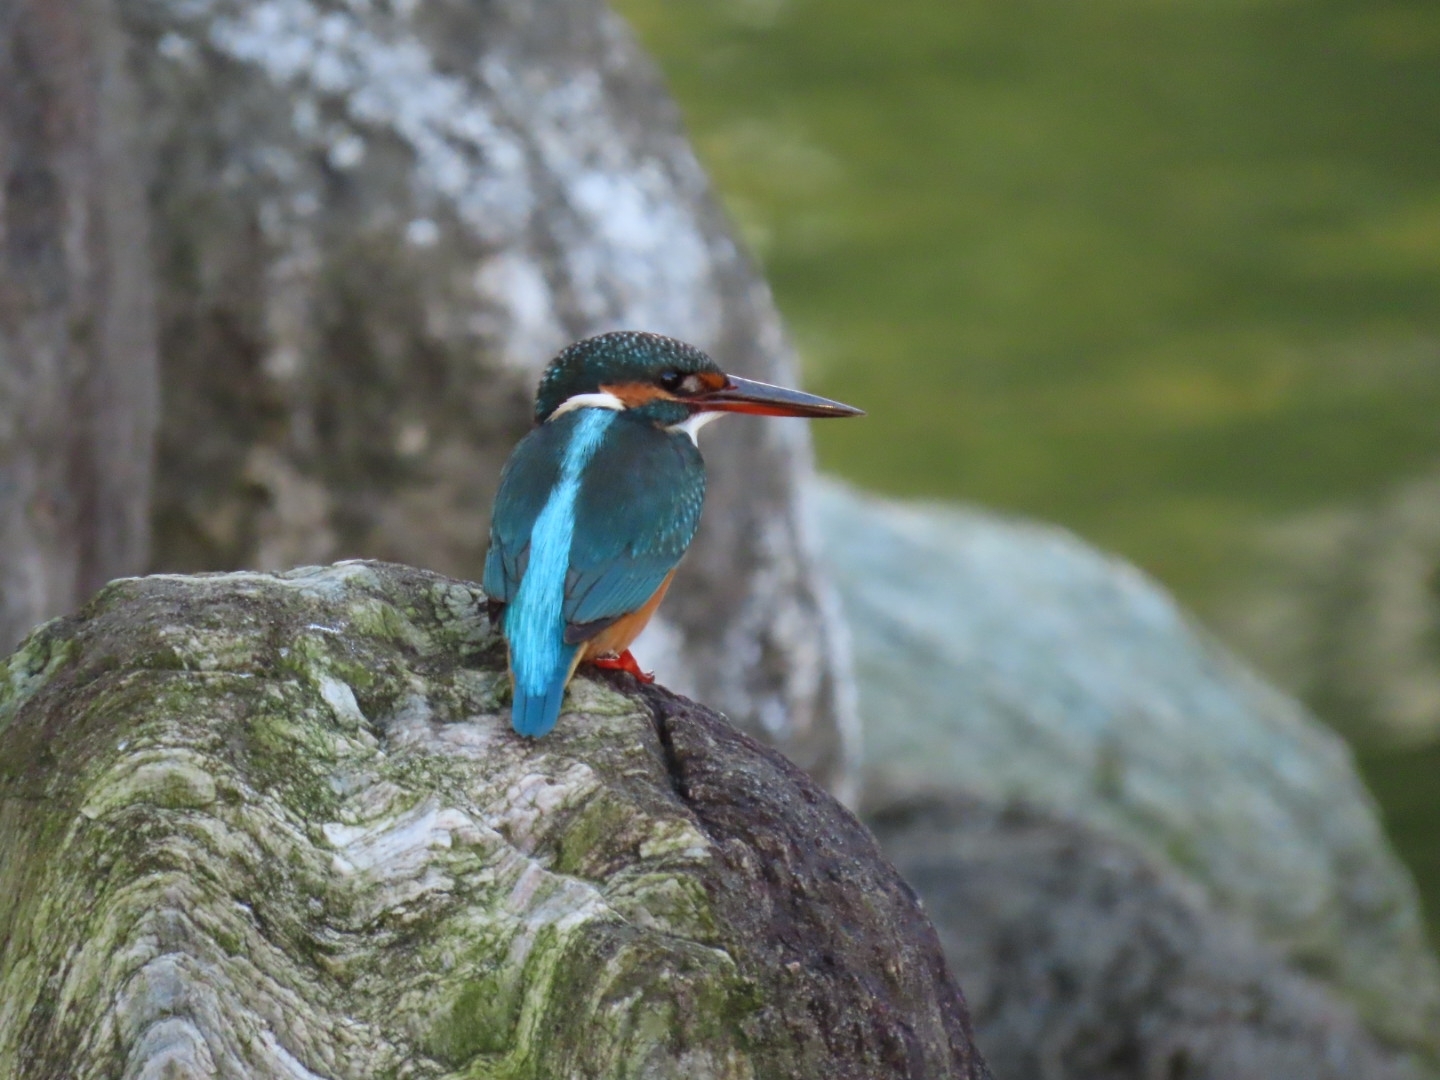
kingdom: Animalia
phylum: Chordata
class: Aves
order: Coraciiformes
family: Alcedinidae
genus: Alcedo
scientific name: Alcedo atthis
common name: Common kingfisher
